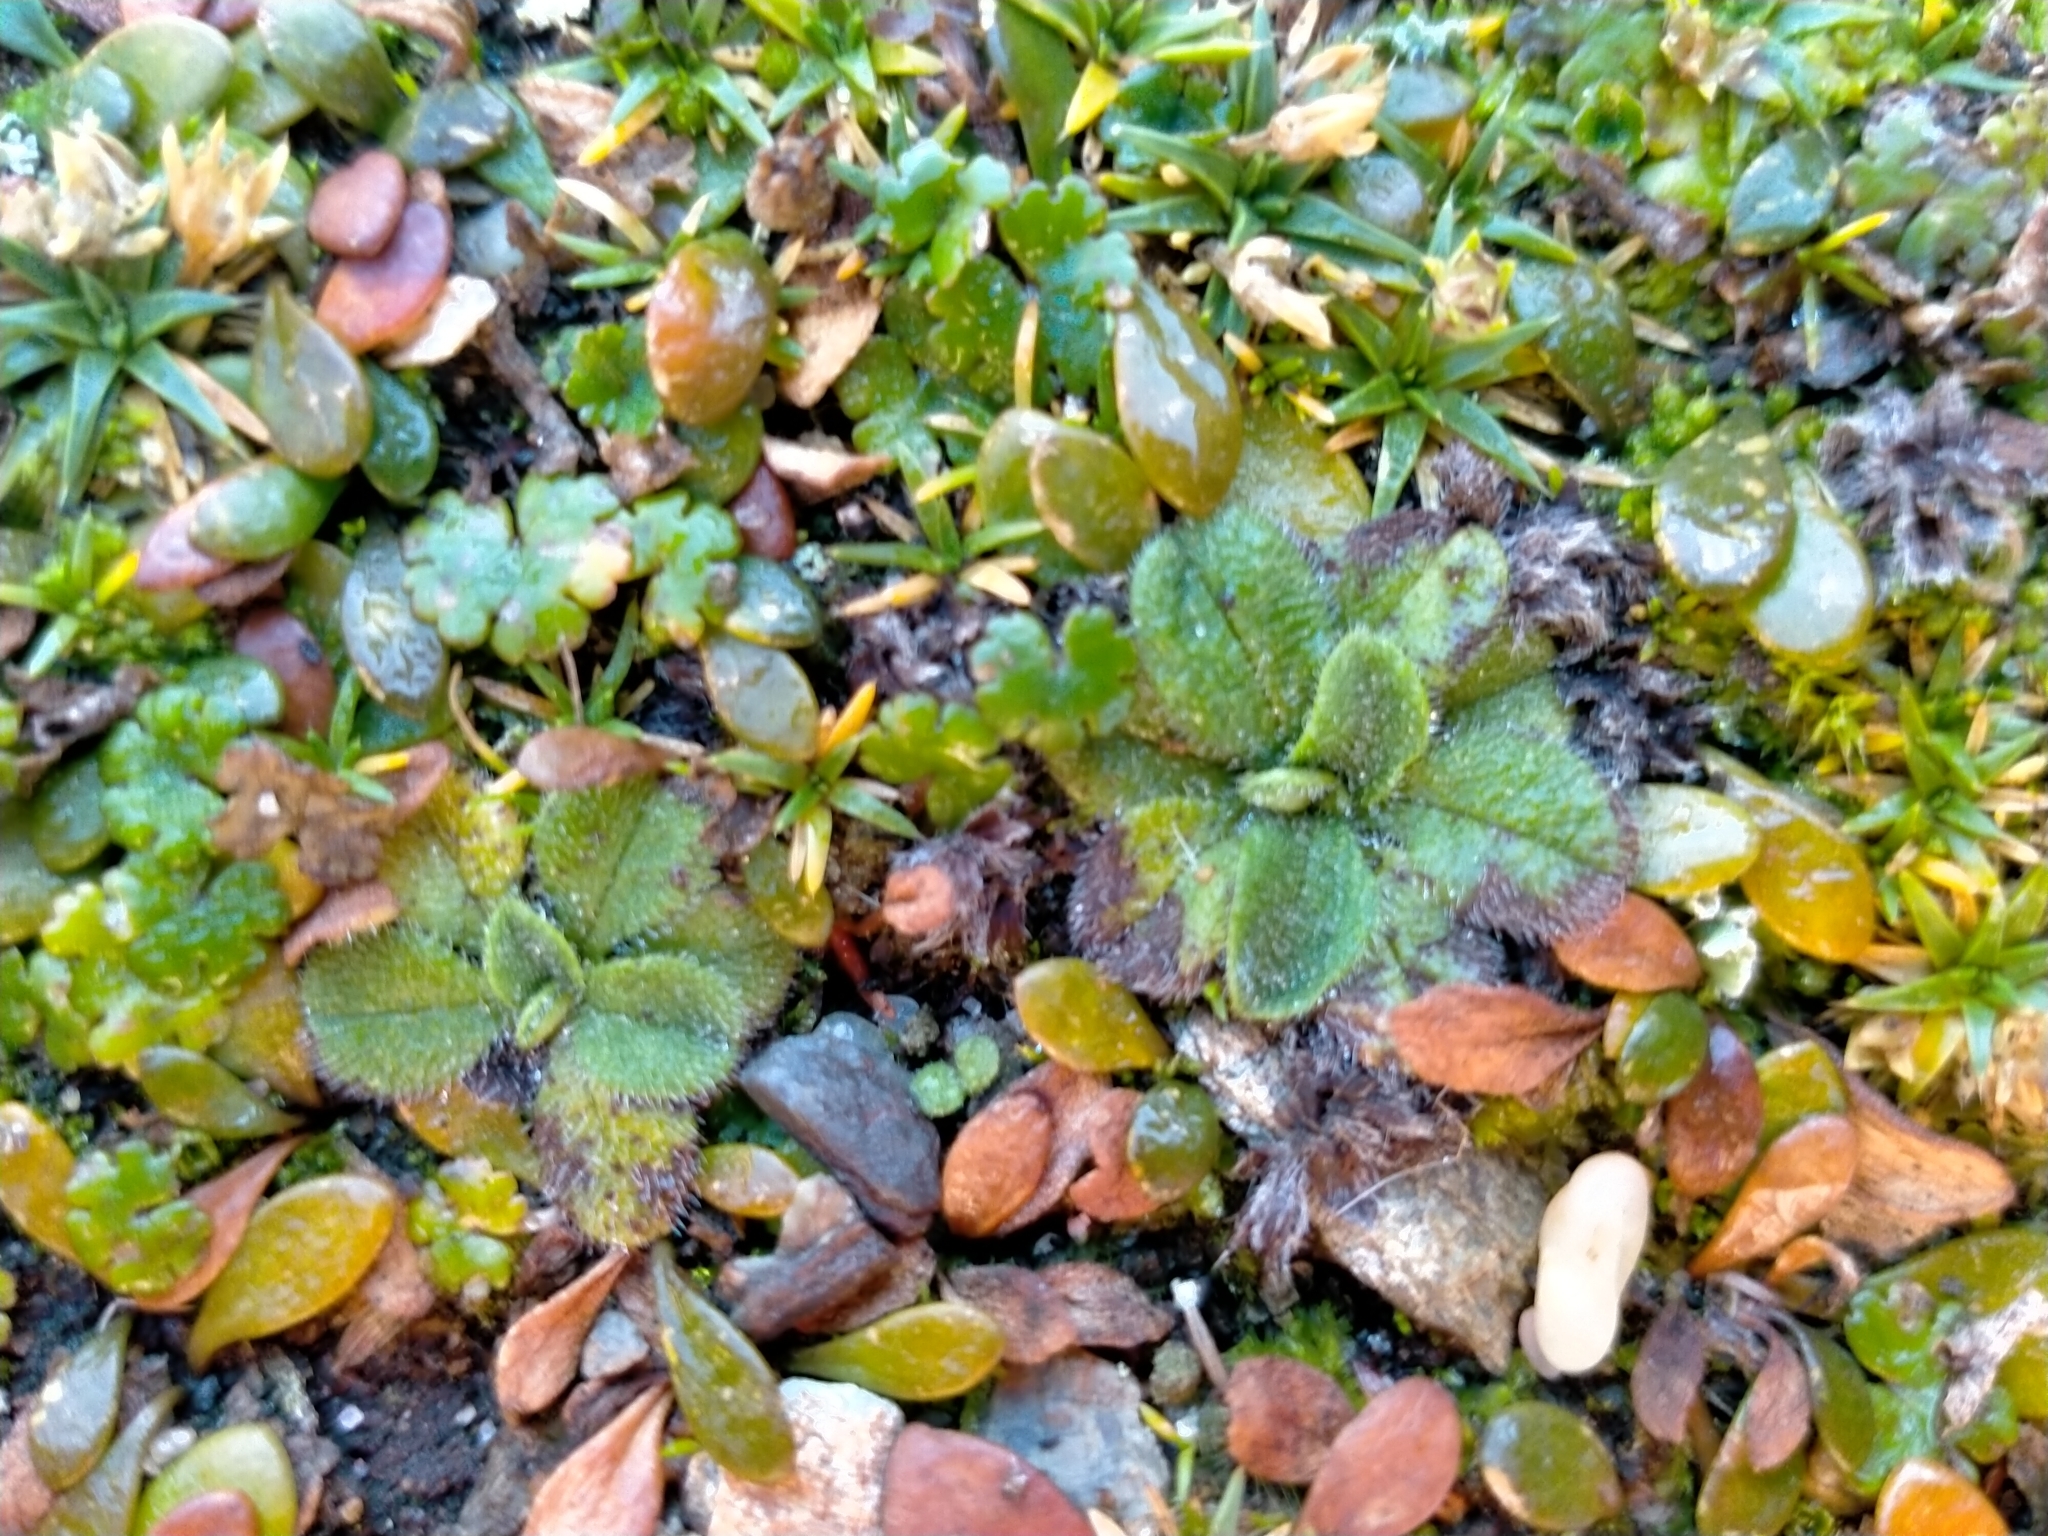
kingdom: Plantae
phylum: Tracheophyta
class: Magnoliopsida
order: Boraginales
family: Boraginaceae
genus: Myosotis
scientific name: Myosotis antarctica
